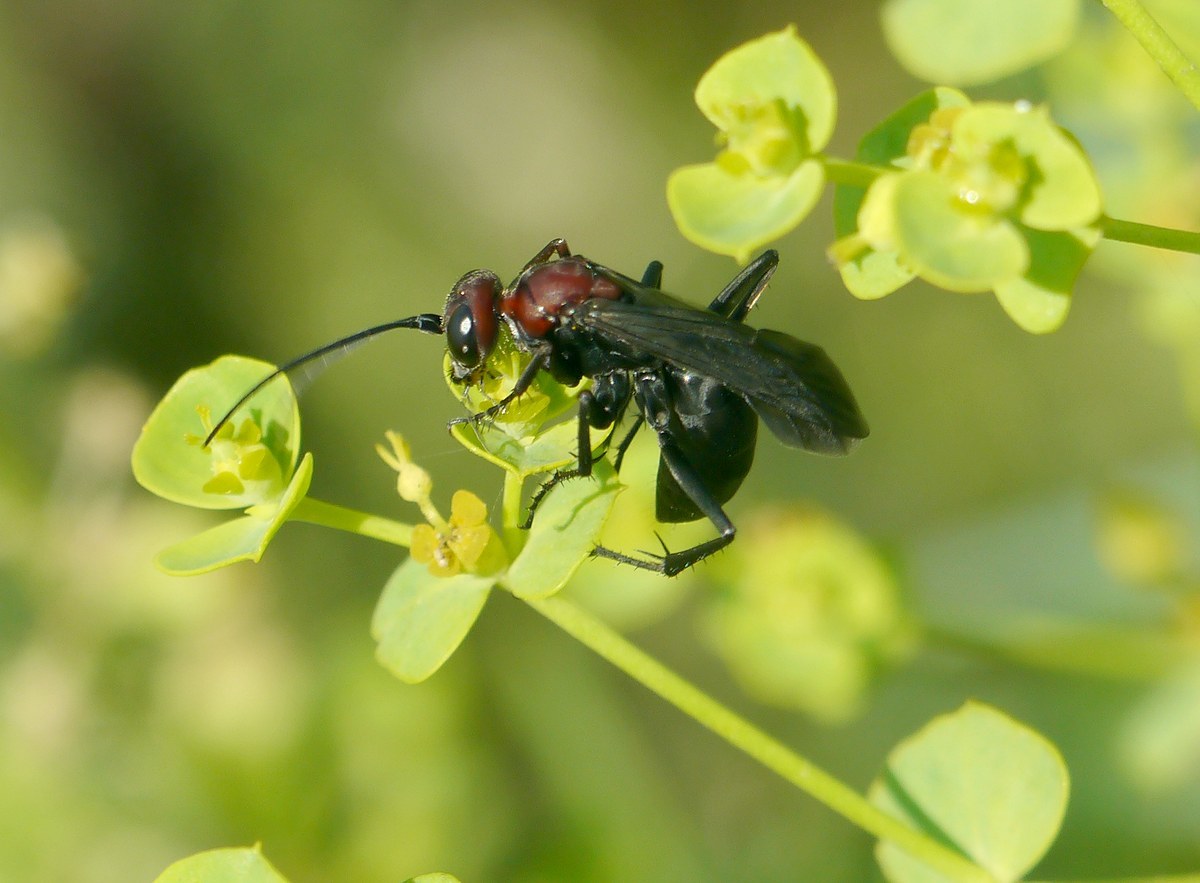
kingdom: Animalia
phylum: Arthropoda
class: Insecta
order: Hymenoptera
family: Pompilidae
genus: Agenioideus
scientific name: Agenioideus dichrous
